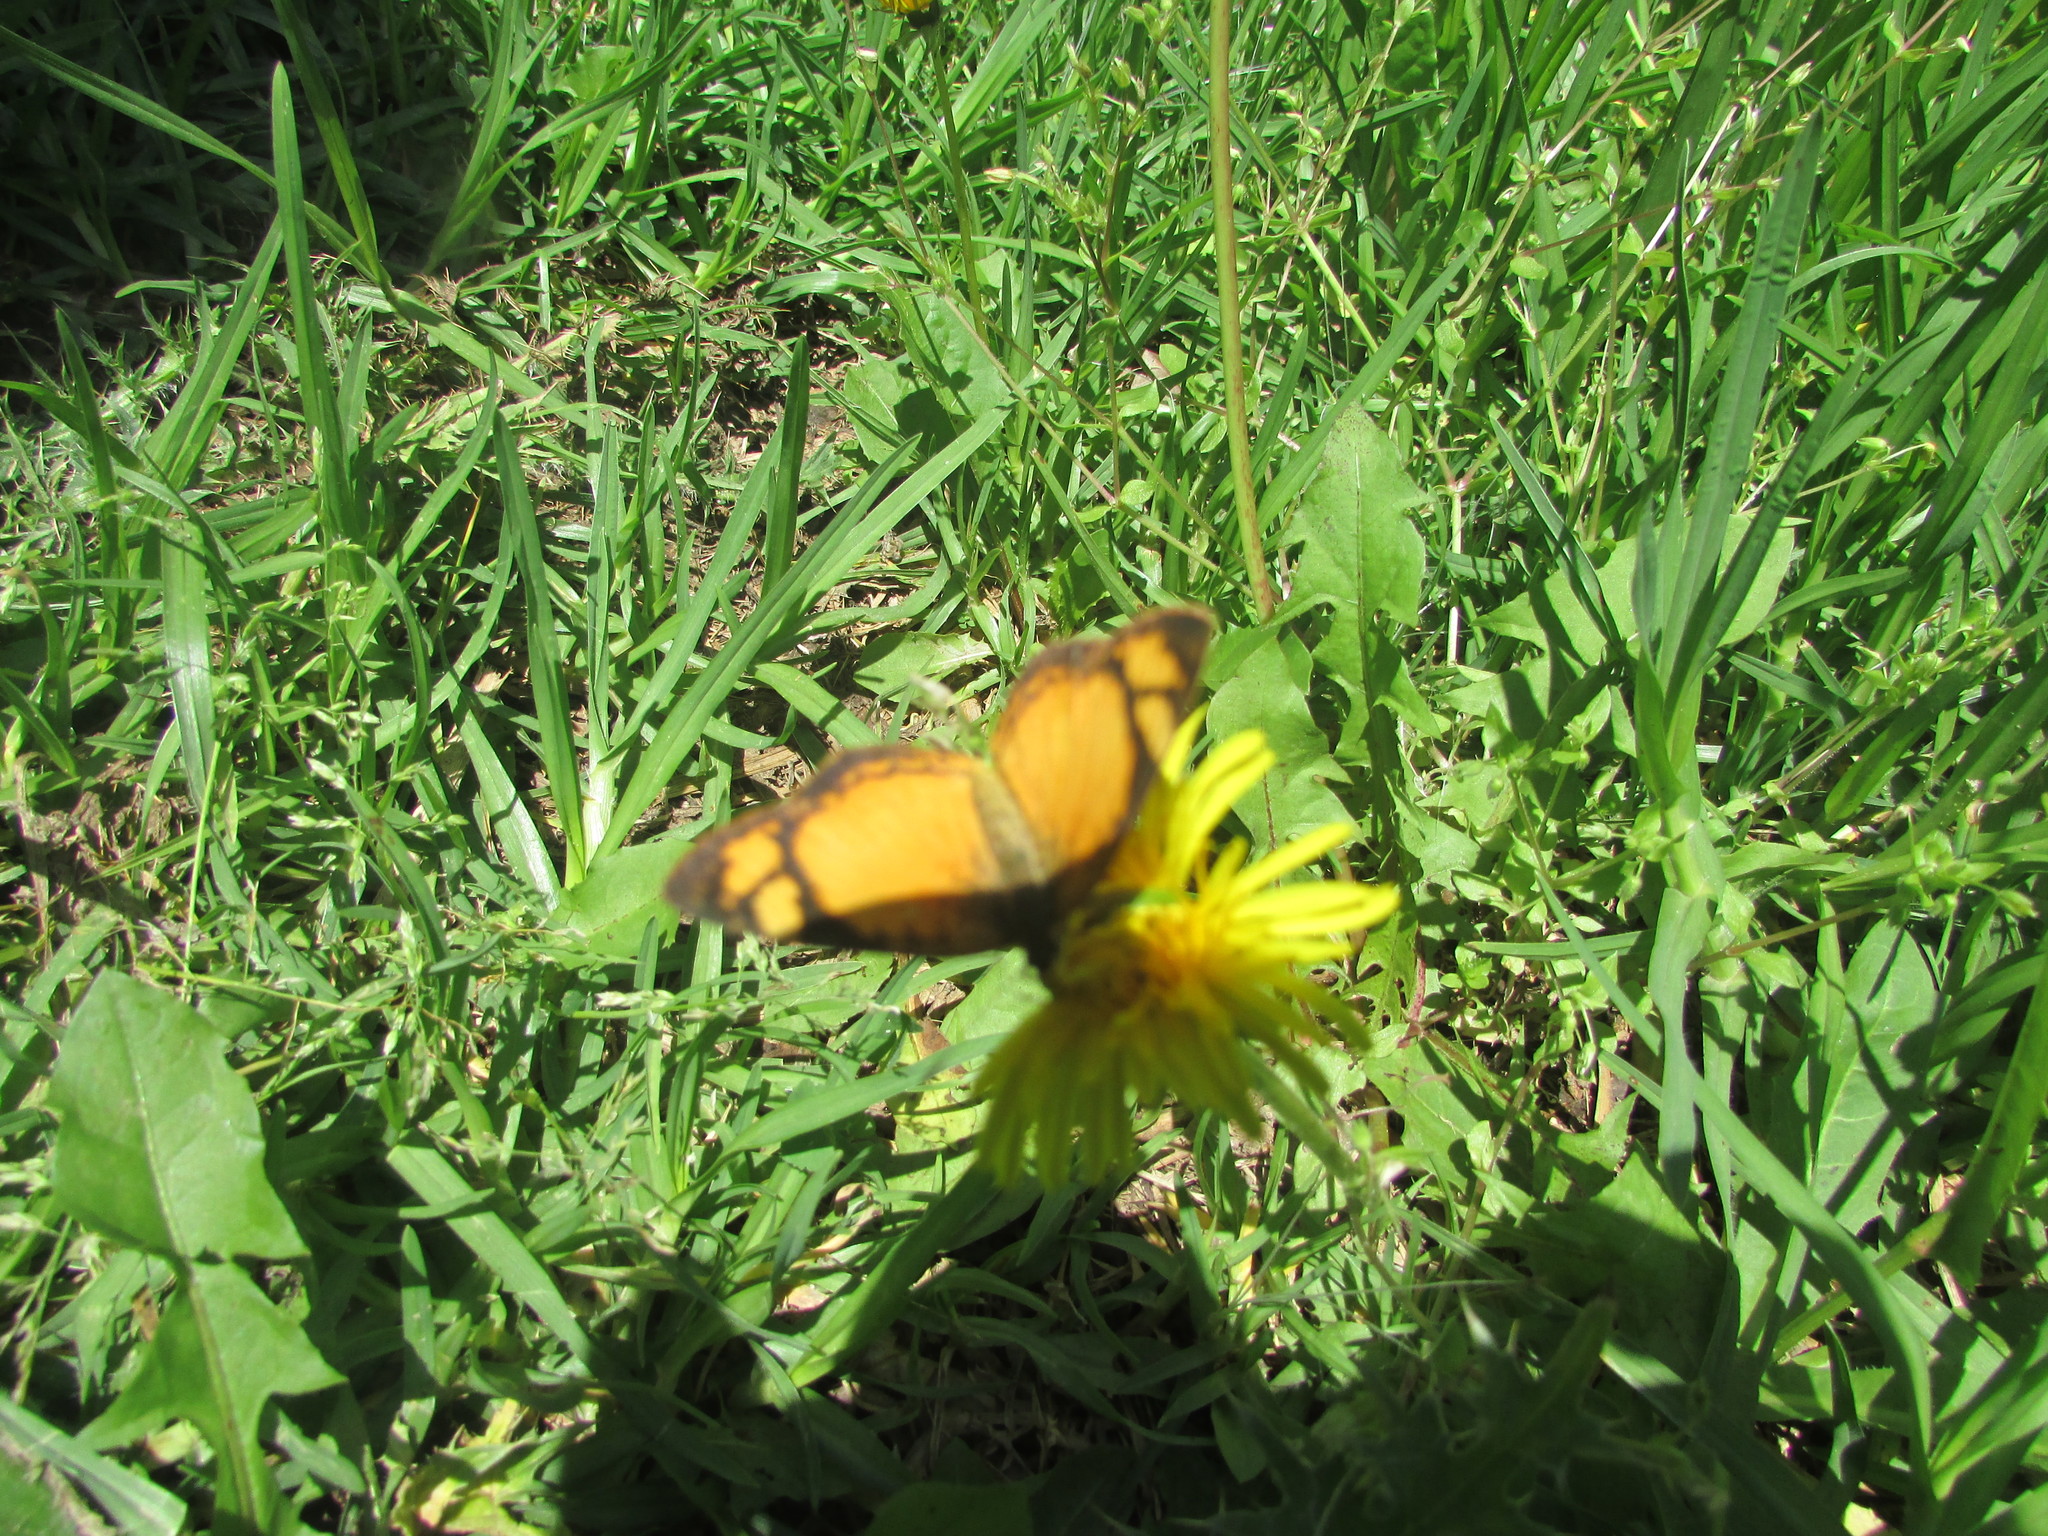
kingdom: Animalia
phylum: Arthropoda
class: Insecta
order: Lepidoptera
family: Nymphalidae
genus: Tegosa
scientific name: Tegosa claudina
